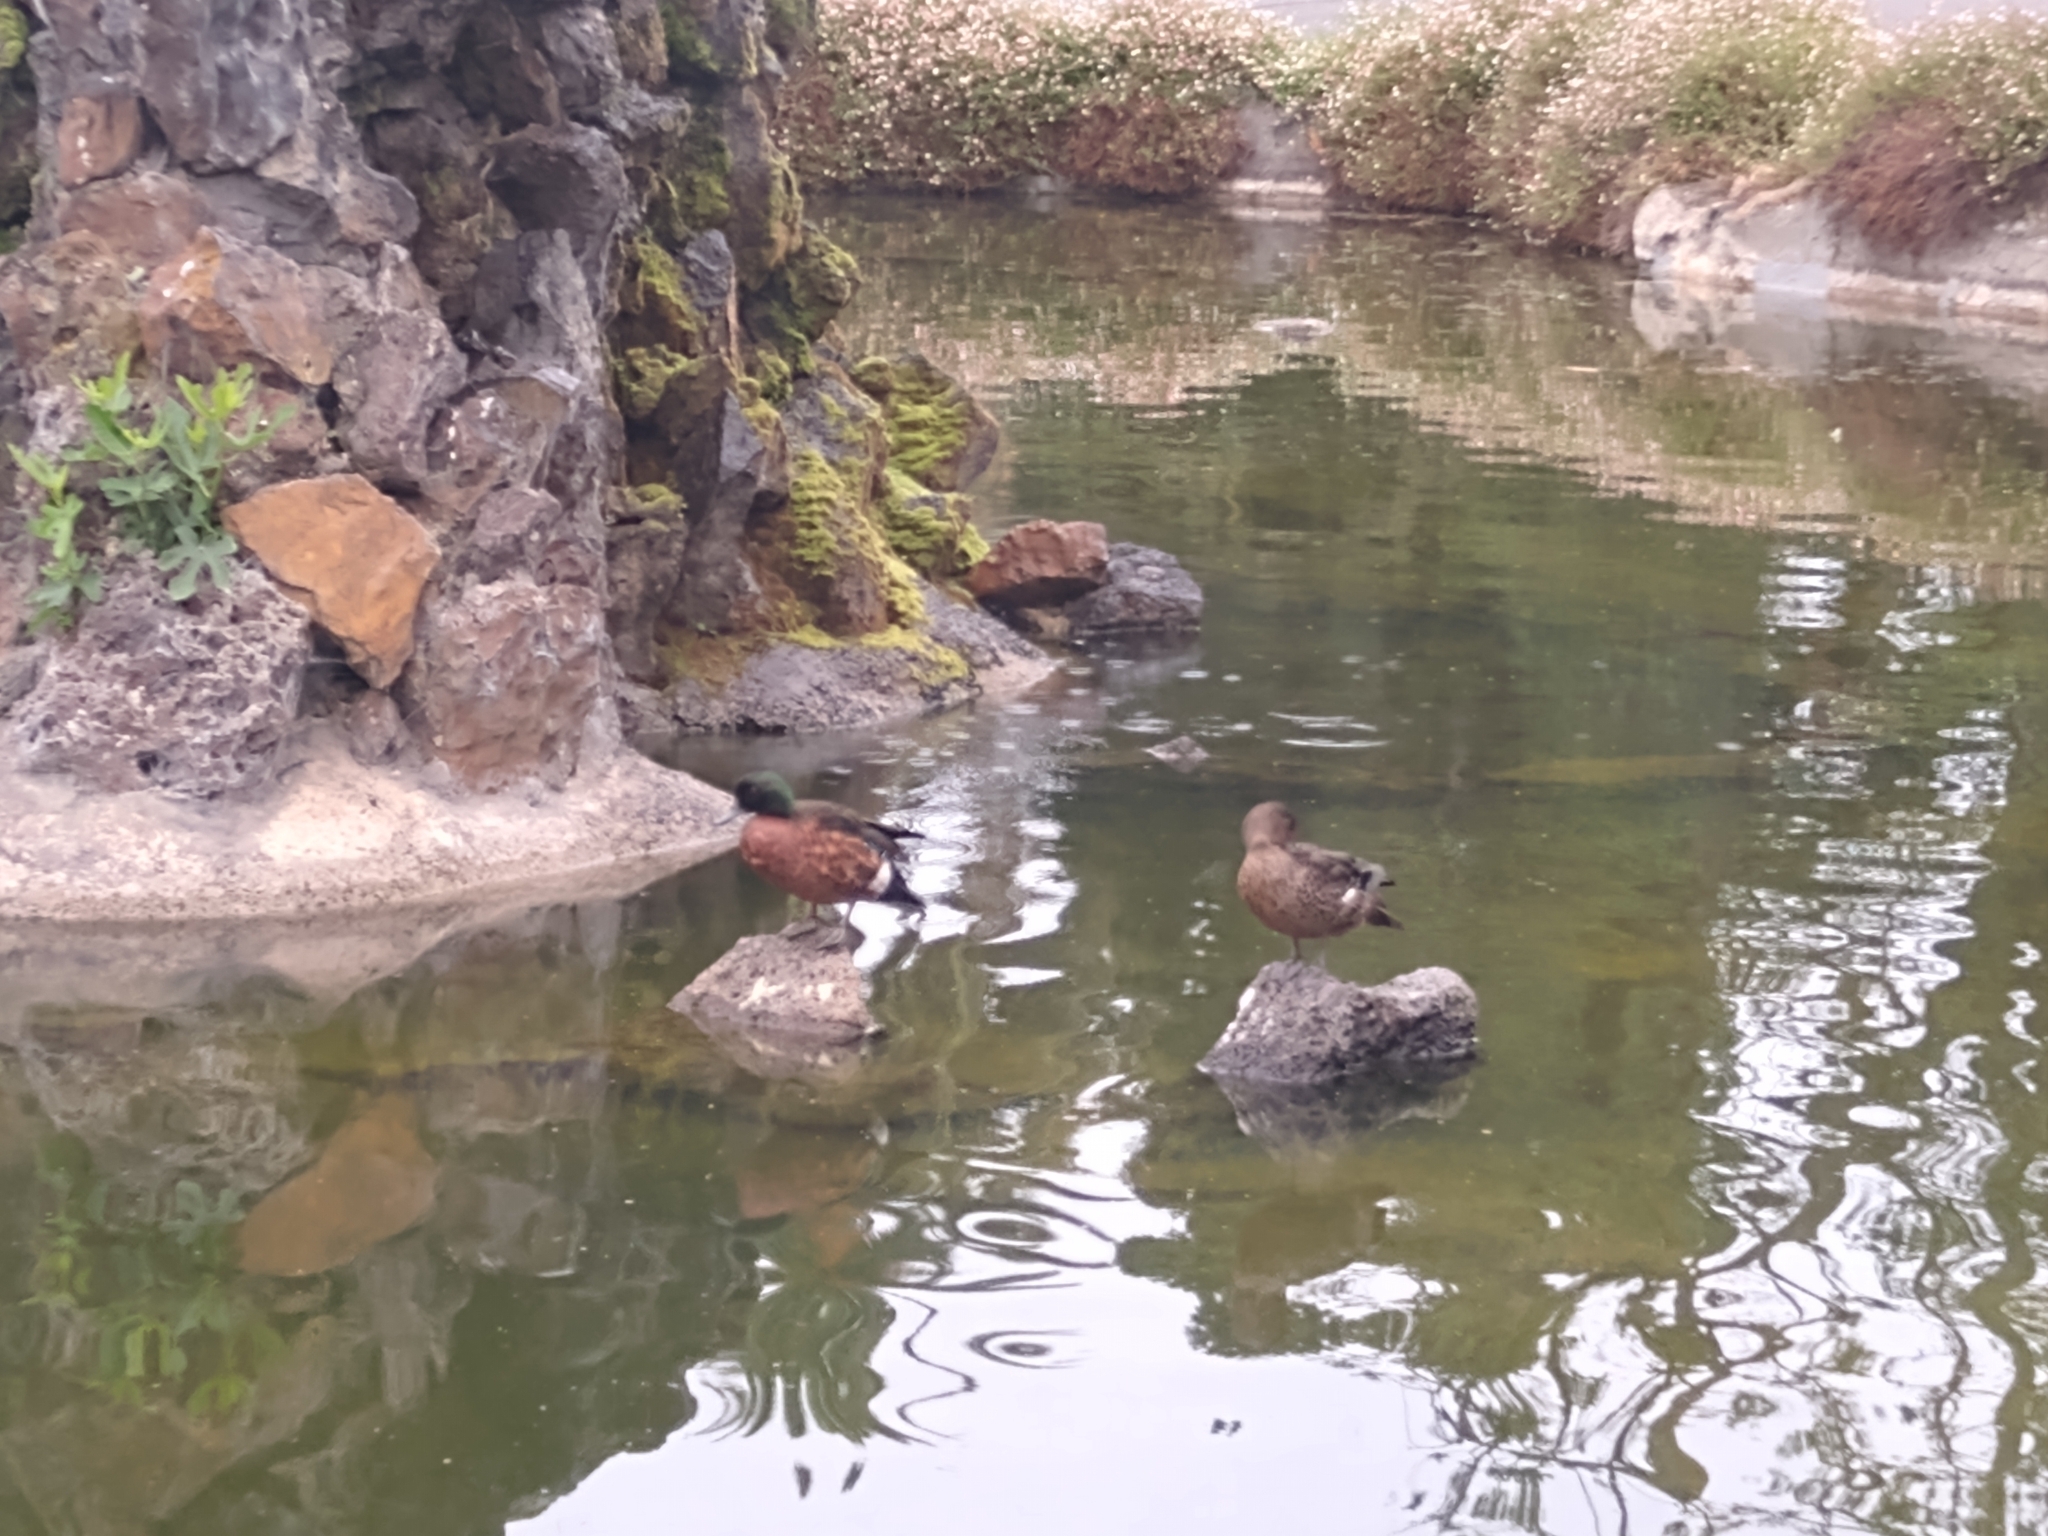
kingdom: Animalia
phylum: Chordata
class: Aves
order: Anseriformes
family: Anatidae
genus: Anas
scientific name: Anas castanea
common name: Chestnut teal
